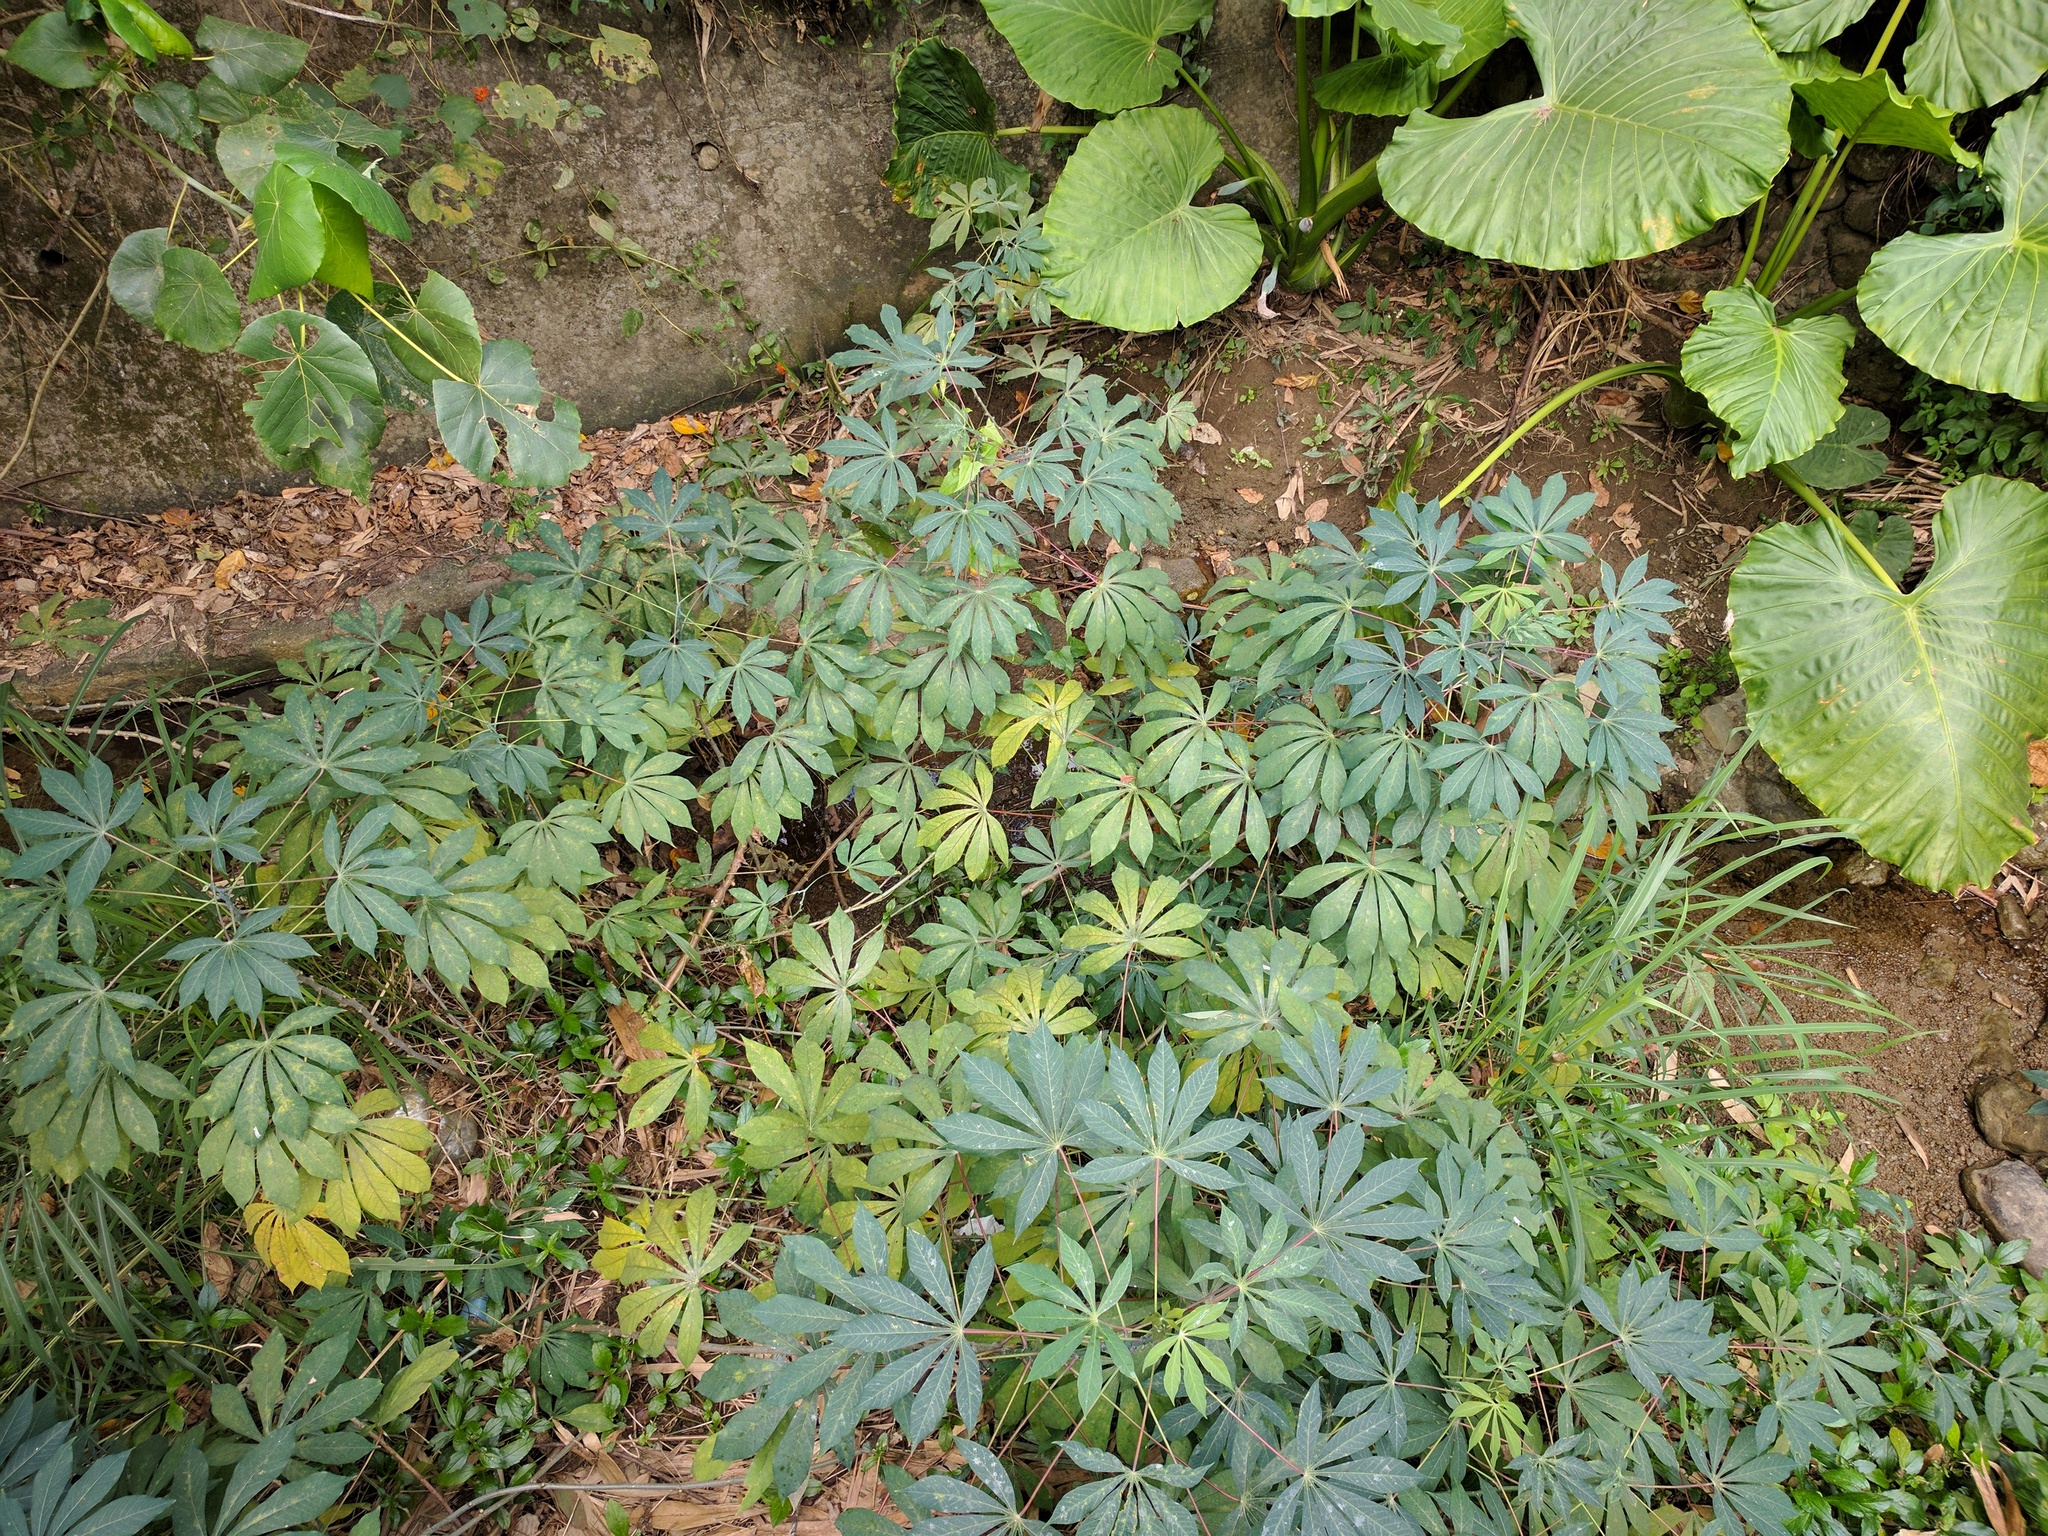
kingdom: Plantae
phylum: Tracheophyta
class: Magnoliopsida
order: Malpighiales
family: Euphorbiaceae
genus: Manihot
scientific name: Manihot esculenta
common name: Cassava
